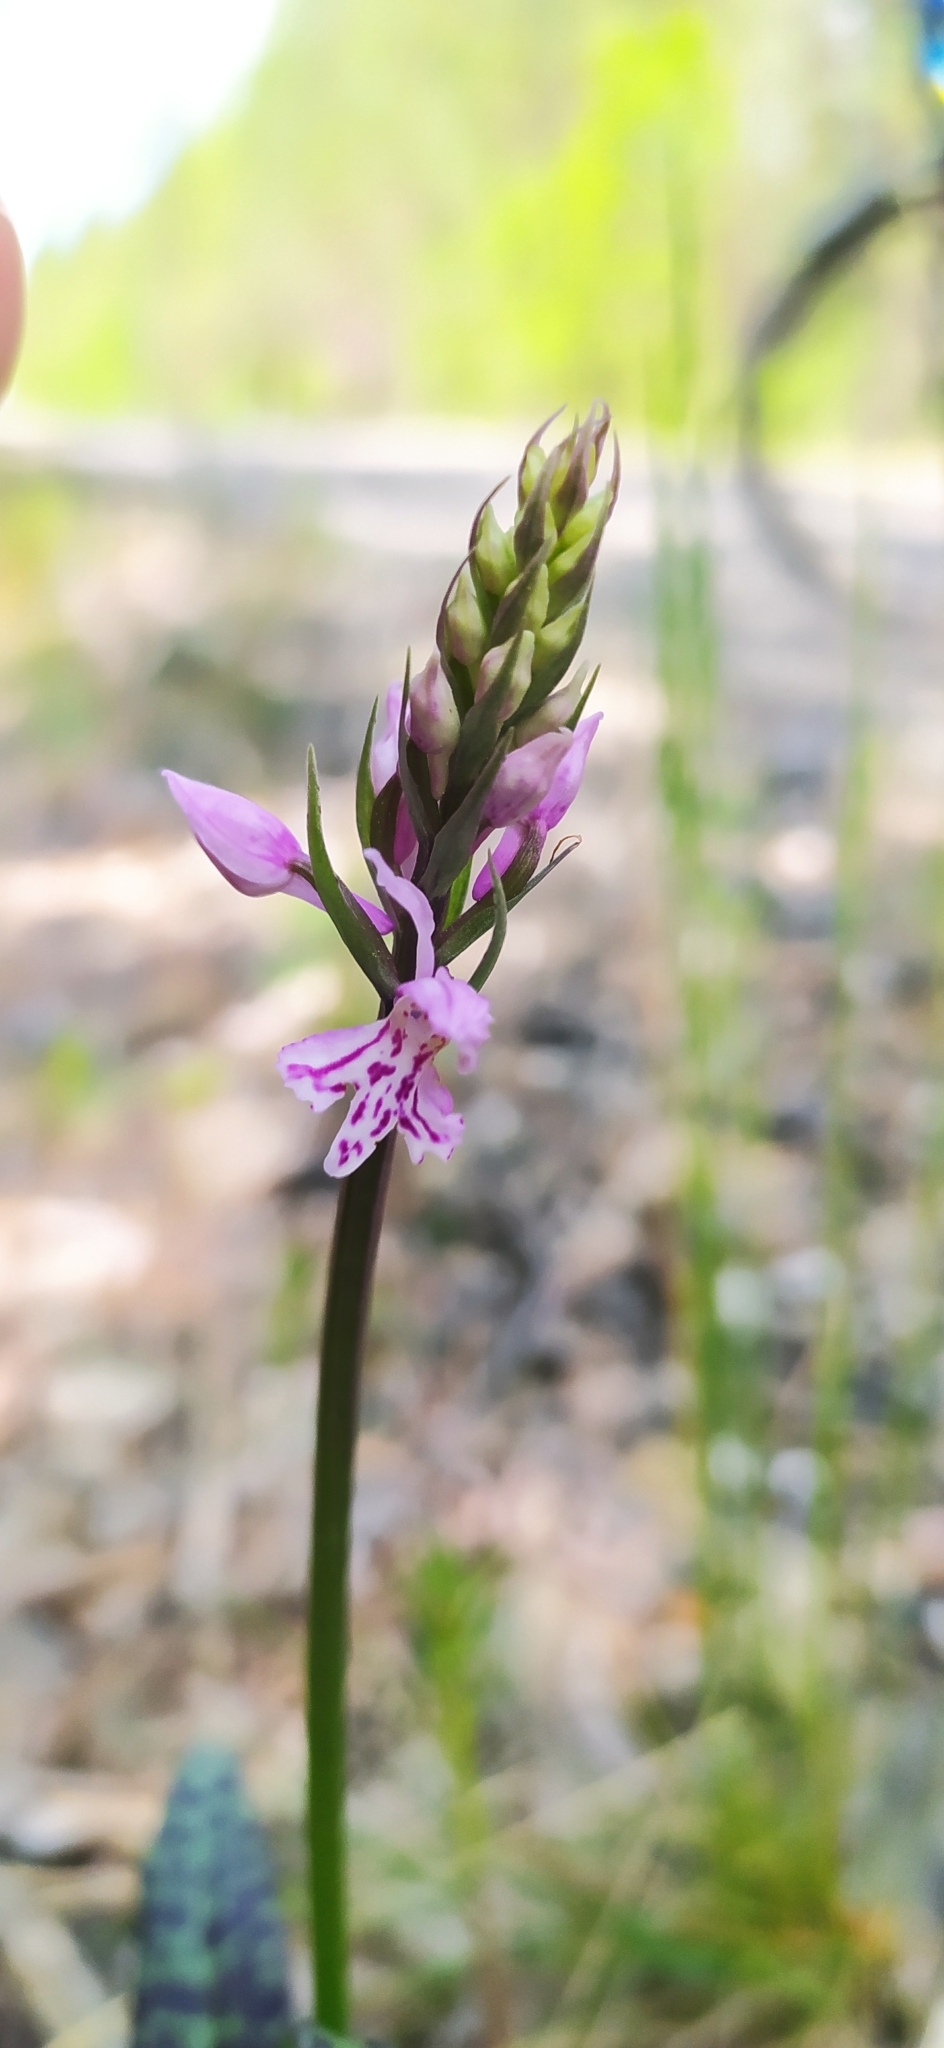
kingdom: Plantae
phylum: Tracheophyta
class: Liliopsida
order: Asparagales
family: Orchidaceae
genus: Dactylorhiza
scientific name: Dactylorhiza maculata
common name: Heath spotted-orchid
